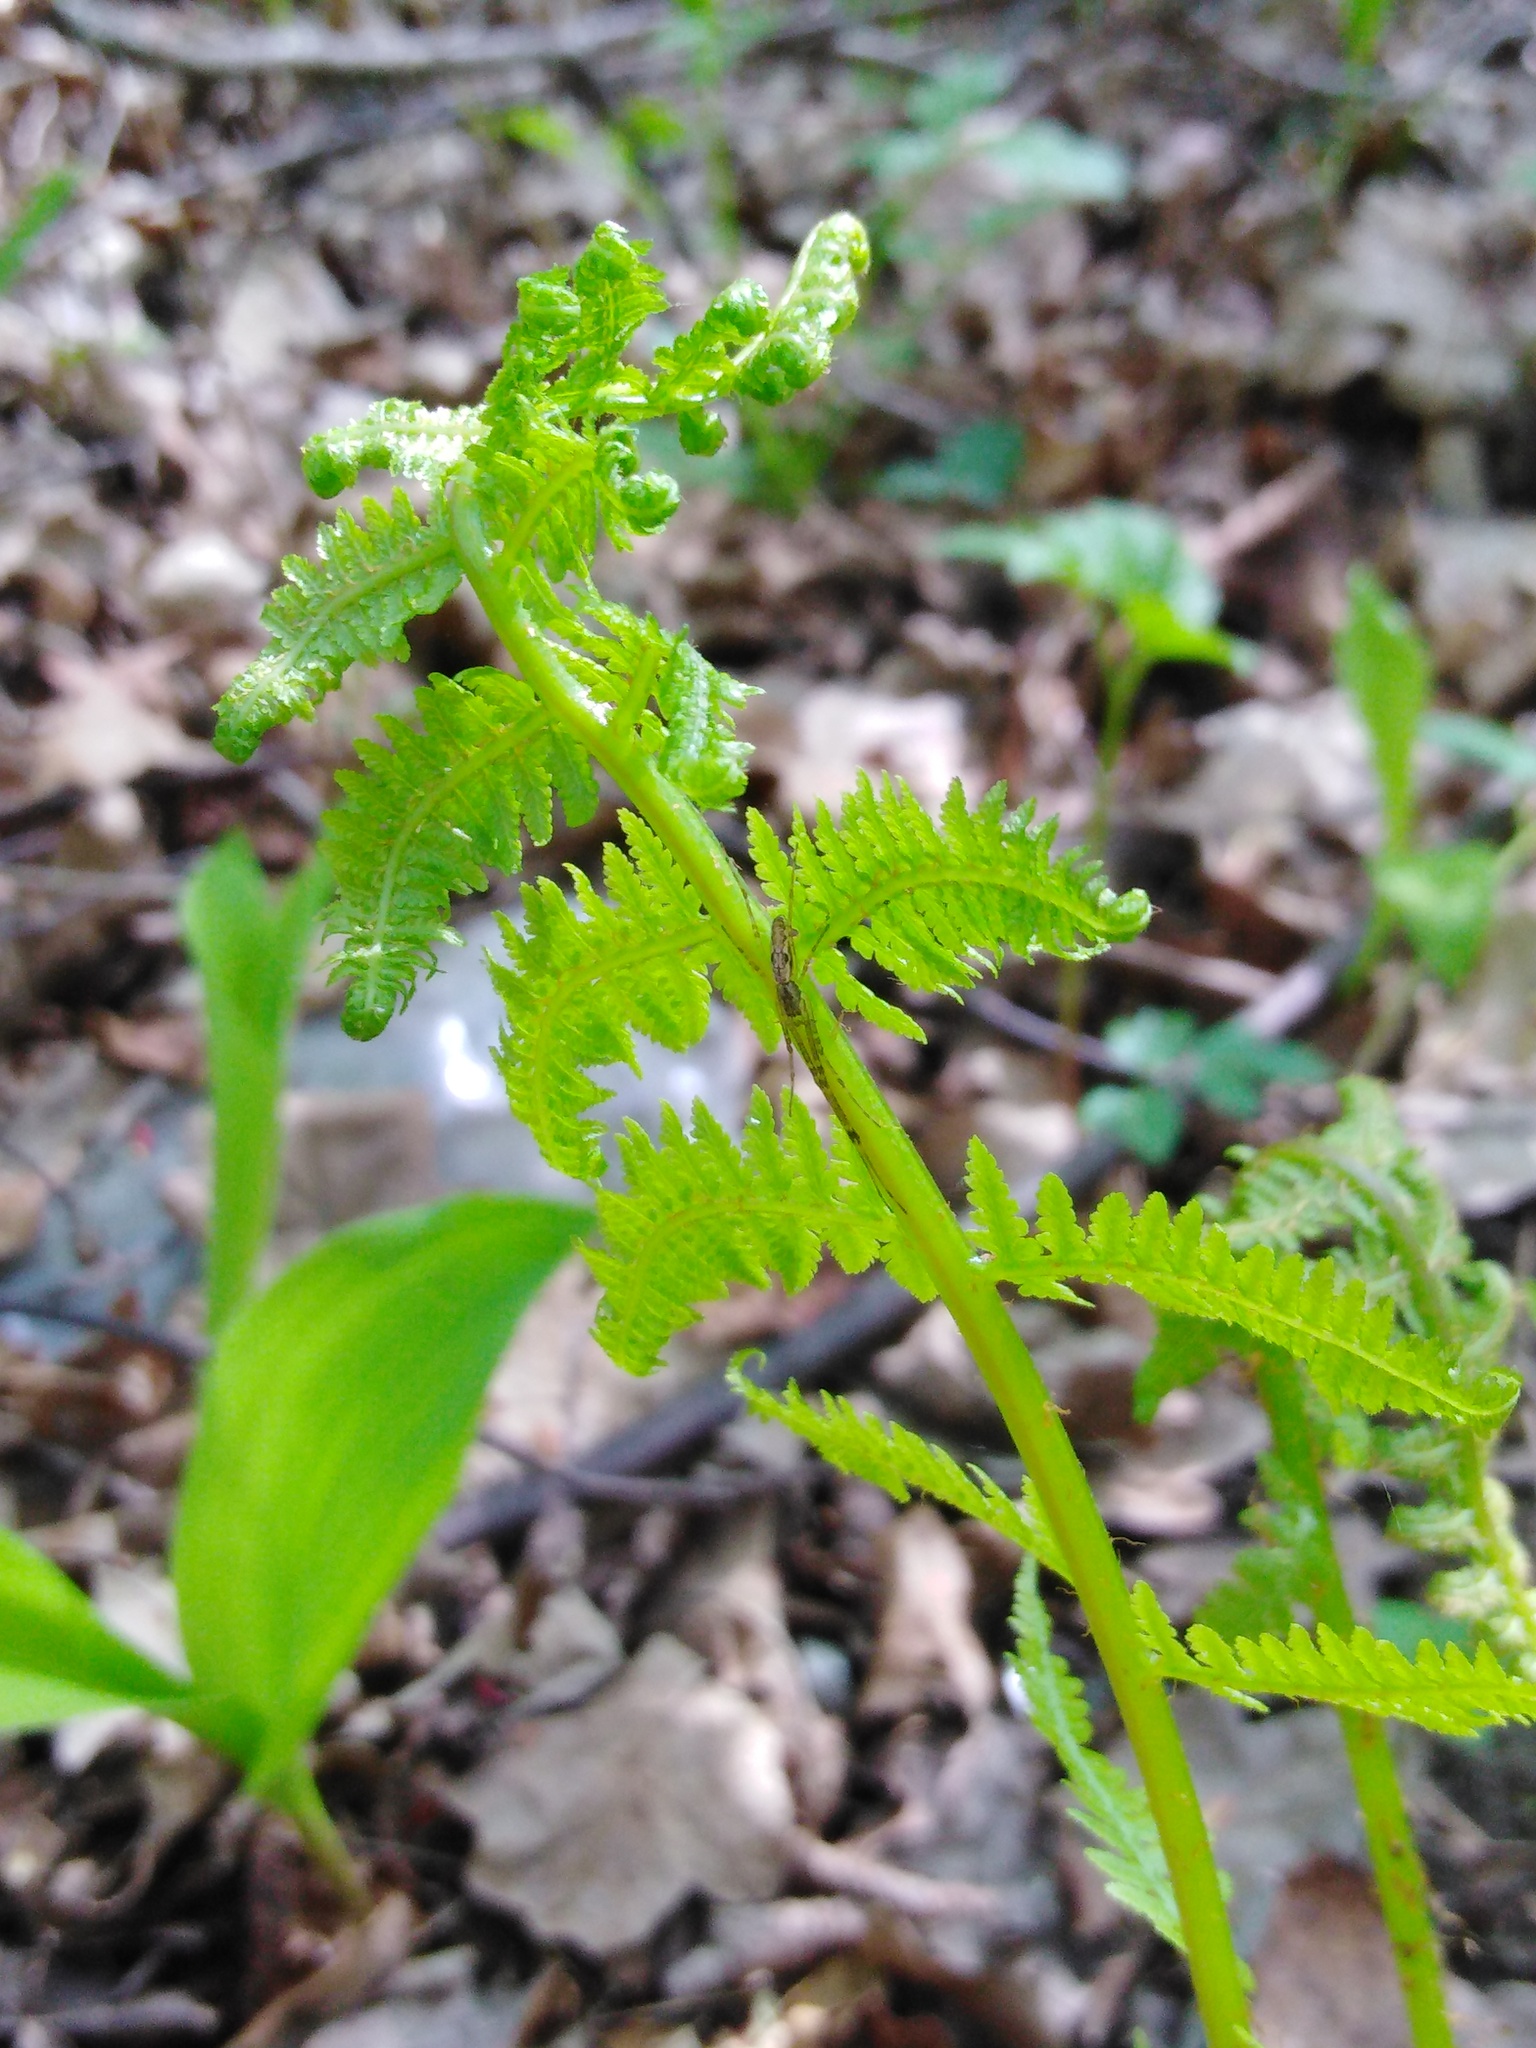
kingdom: Plantae
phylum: Tracheophyta
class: Polypodiopsida
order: Polypodiales
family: Dryopteridaceae
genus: Dryopteris
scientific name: Dryopteris filix-mas
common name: Male fern
